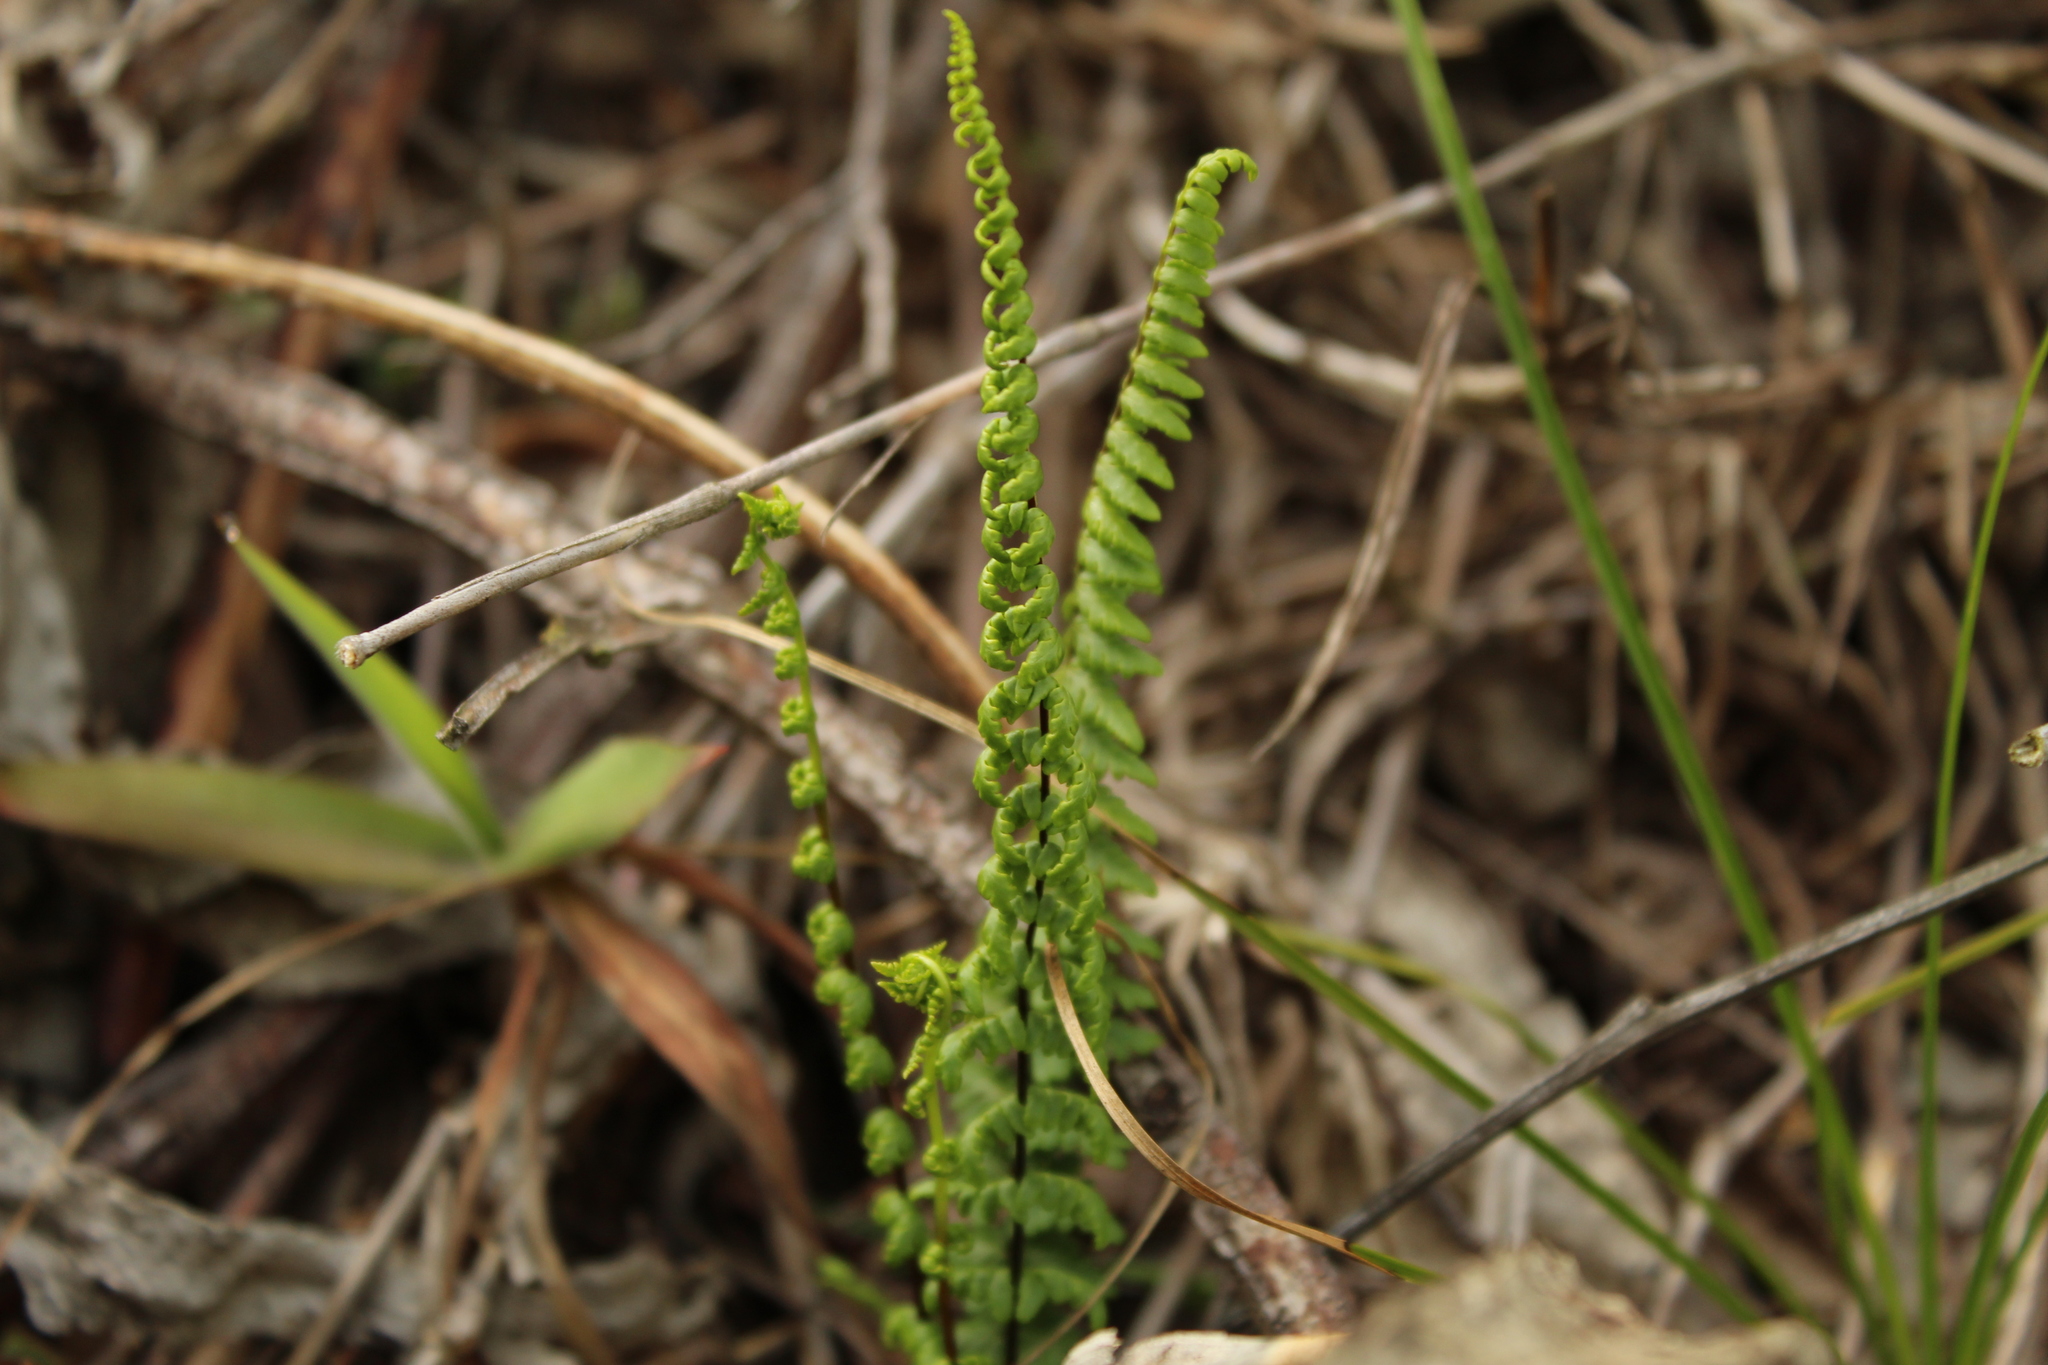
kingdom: Plantae
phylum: Tracheophyta
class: Polypodiopsida
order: Polypodiales
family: Pteridaceae
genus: Adiantopsis
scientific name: Adiantopsis lindigii
